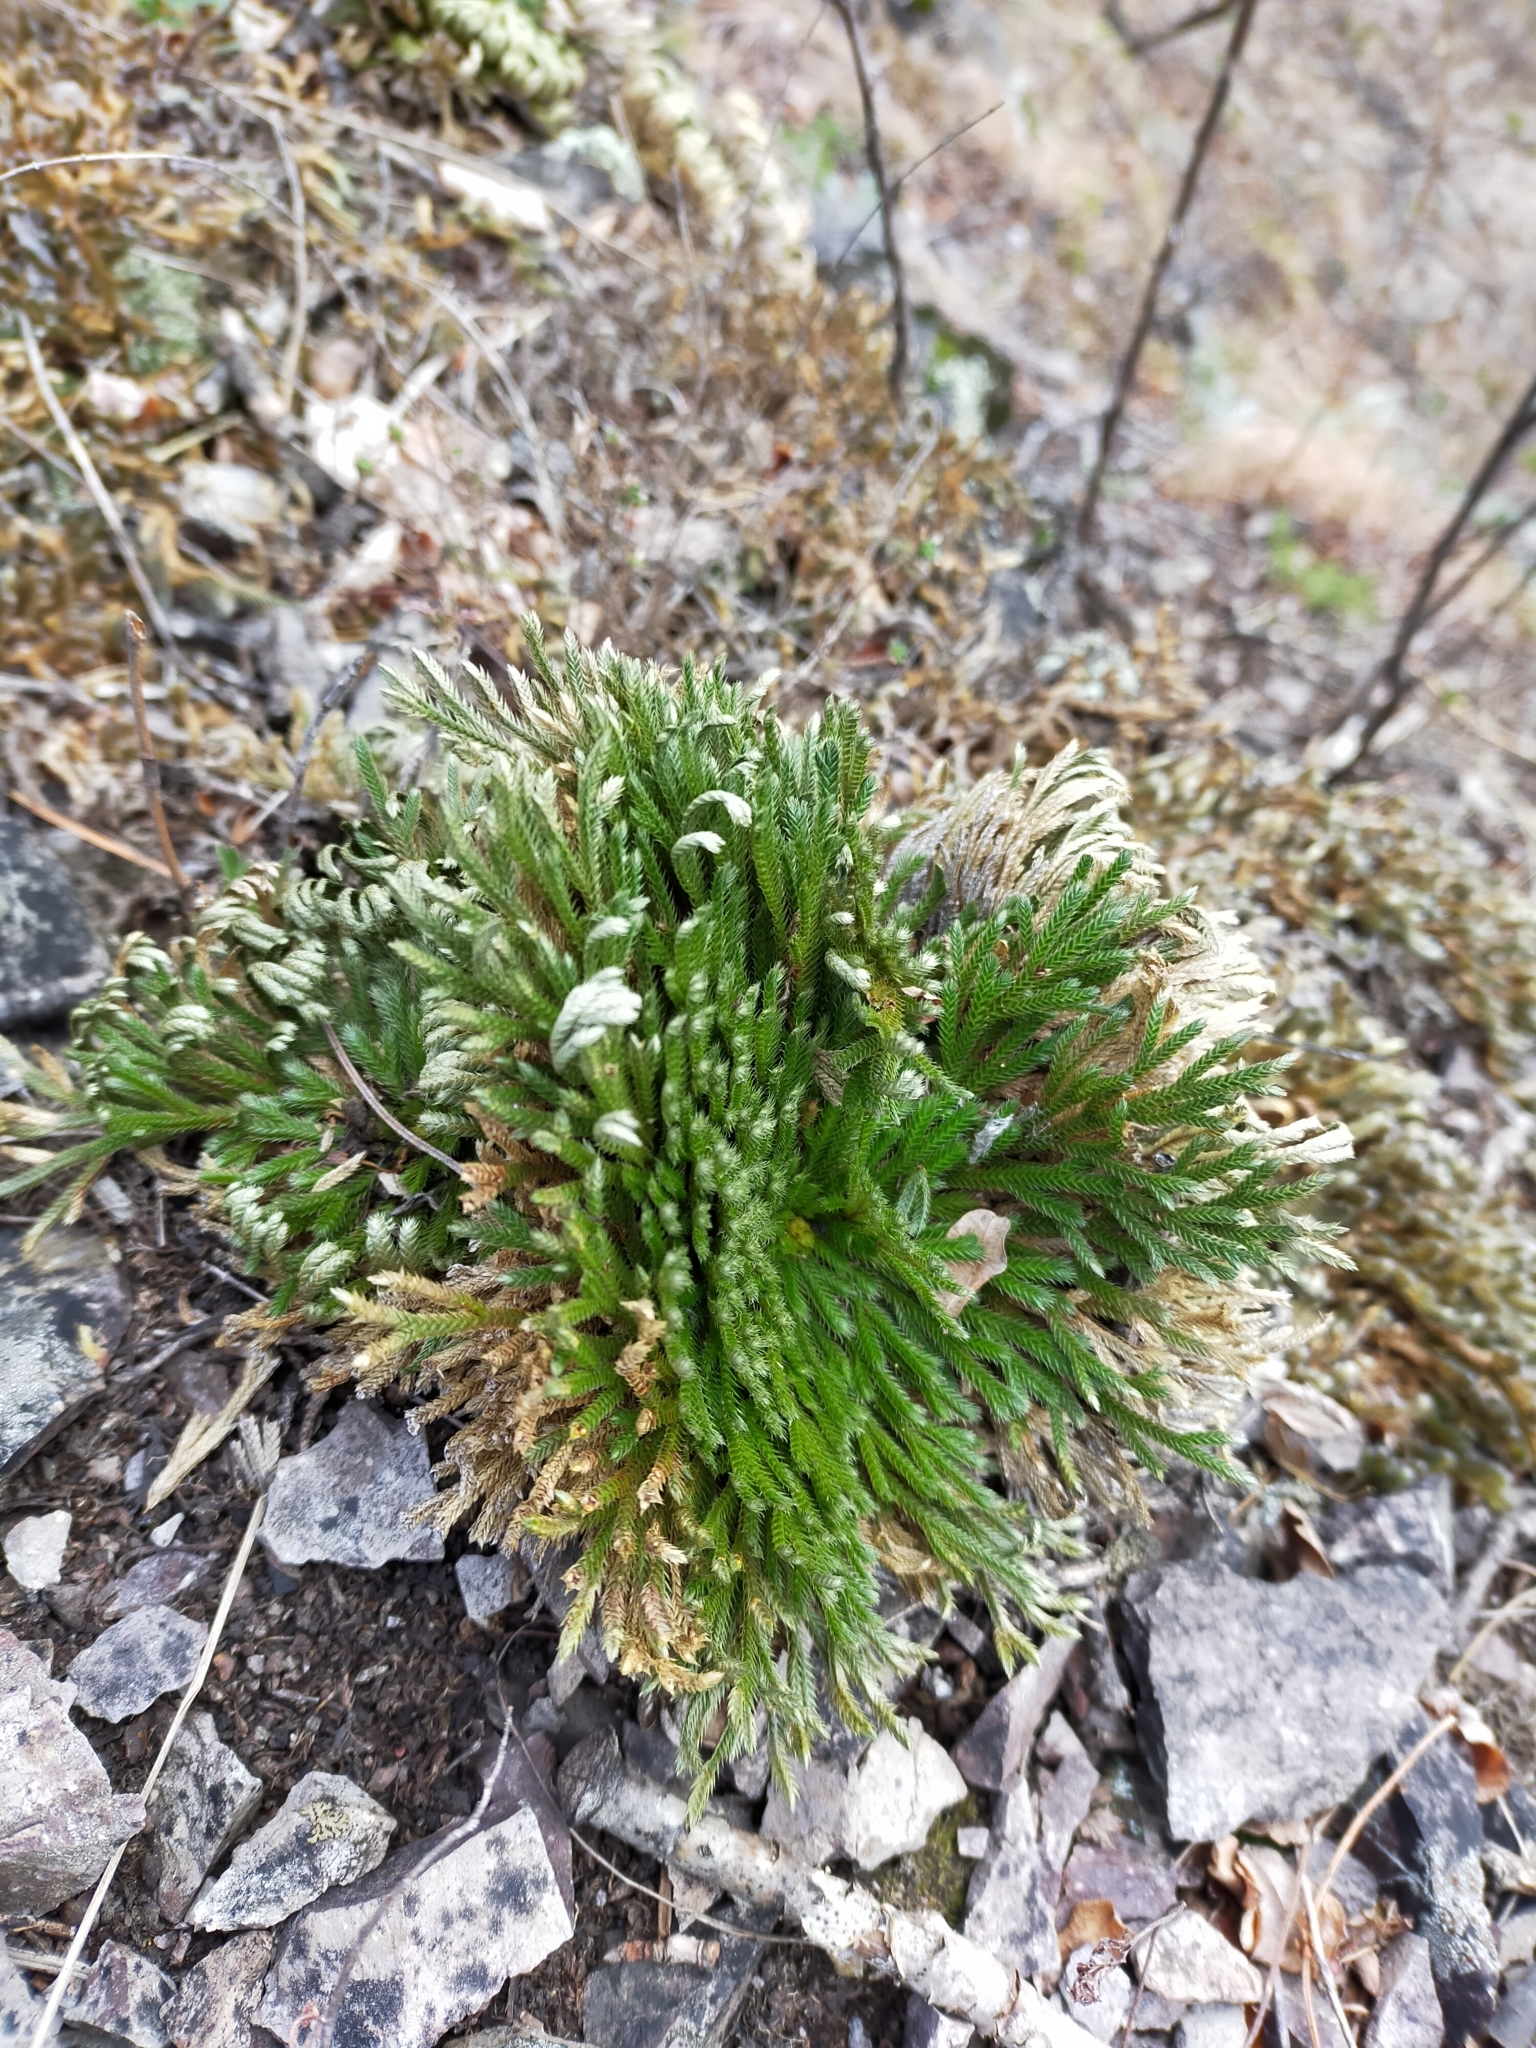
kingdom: Plantae
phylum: Tracheophyta
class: Lycopodiopsida
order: Selaginellales
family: Selaginellaceae
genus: Selaginella
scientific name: Selaginella tamariscina
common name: Little-club-moss
